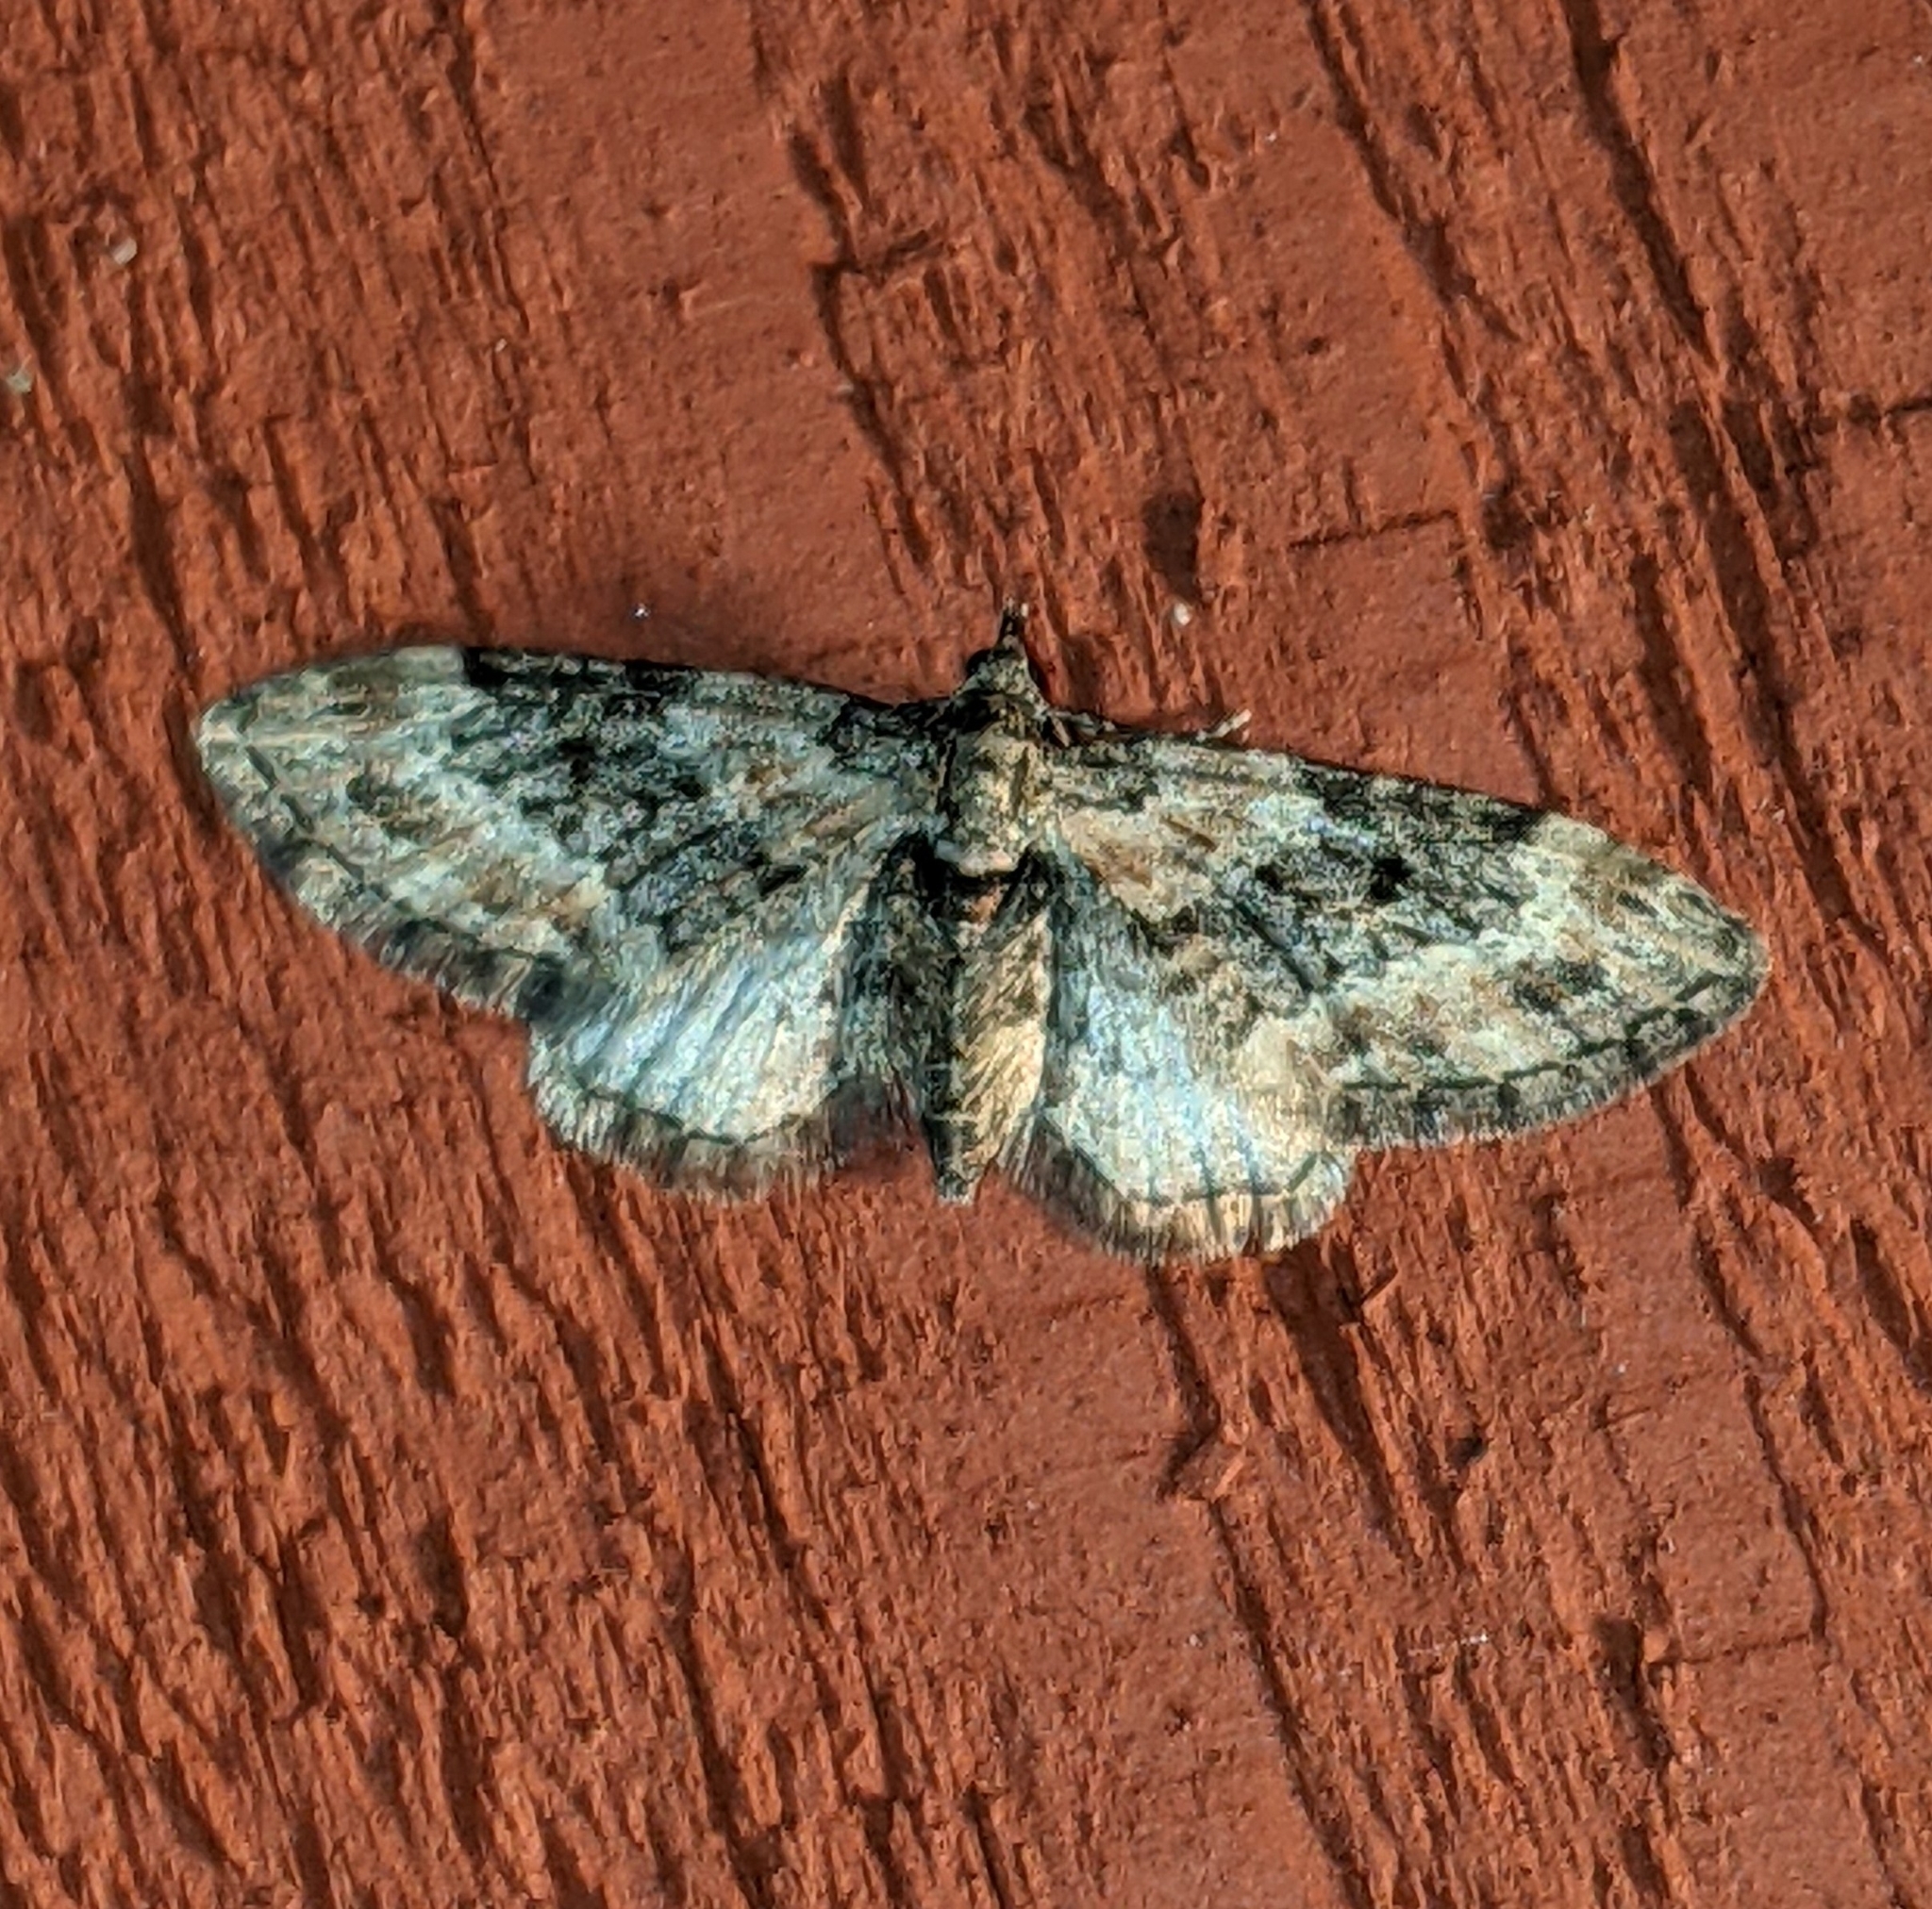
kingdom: Animalia
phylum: Arthropoda
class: Insecta
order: Lepidoptera
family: Geometridae
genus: Eupithecia
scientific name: Eupithecia rotundopuncta
